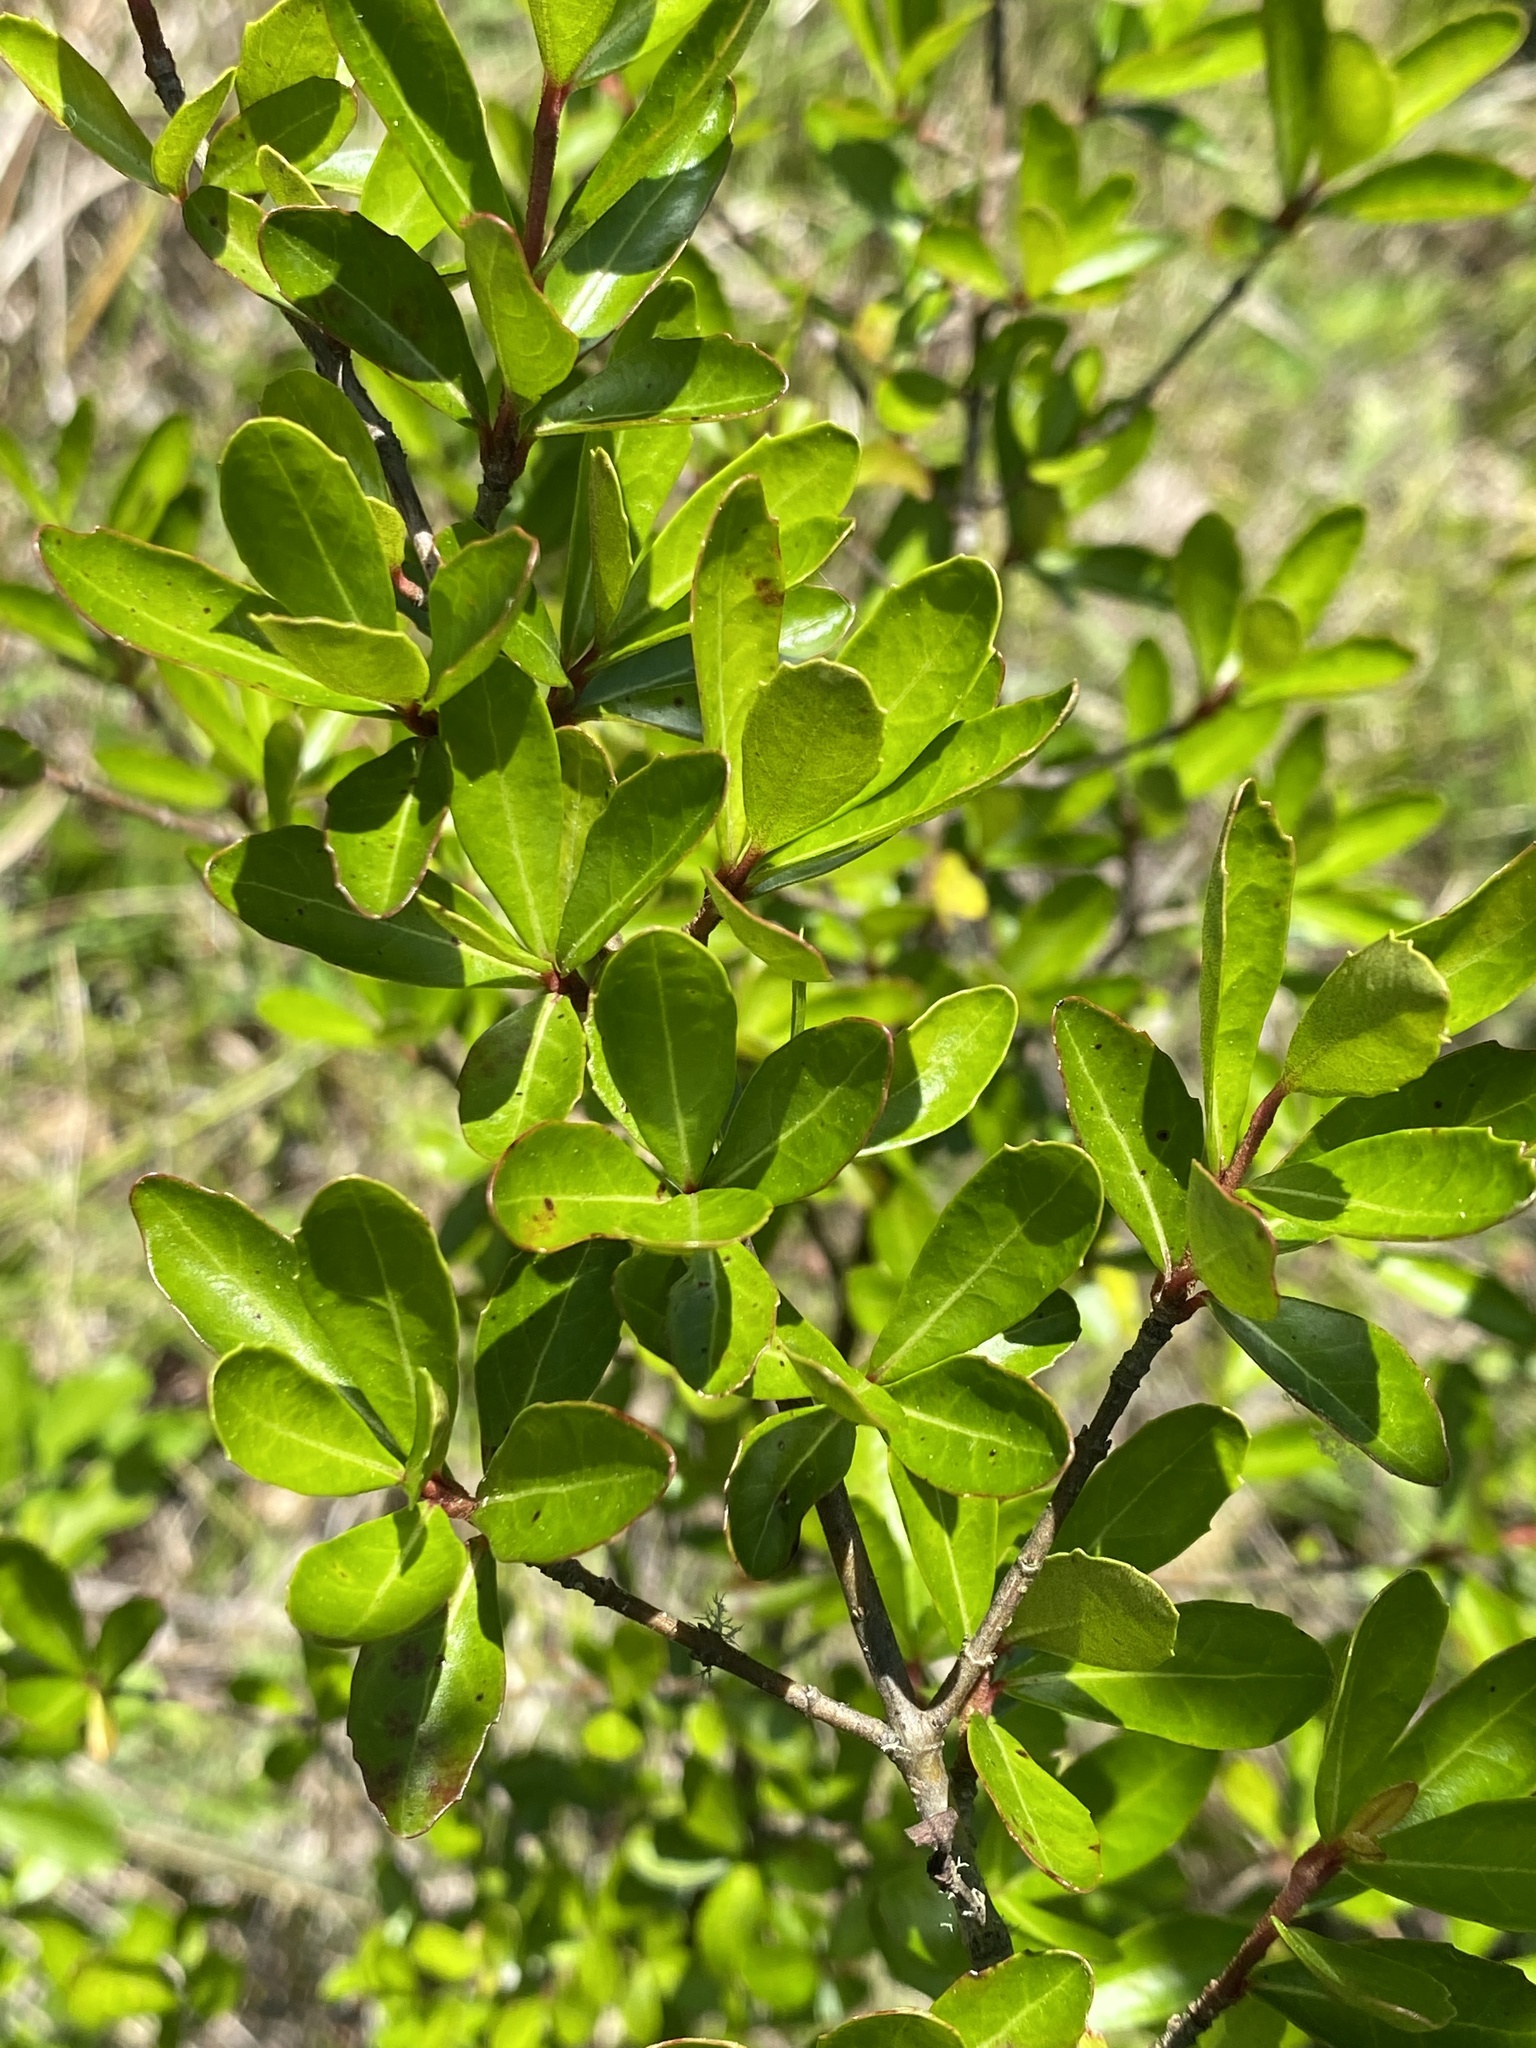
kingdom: Plantae
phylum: Tracheophyta
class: Magnoliopsida
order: Dipsacales
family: Viburnaceae
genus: Viburnum
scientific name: Viburnum obovatum
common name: Walter's viburnum
